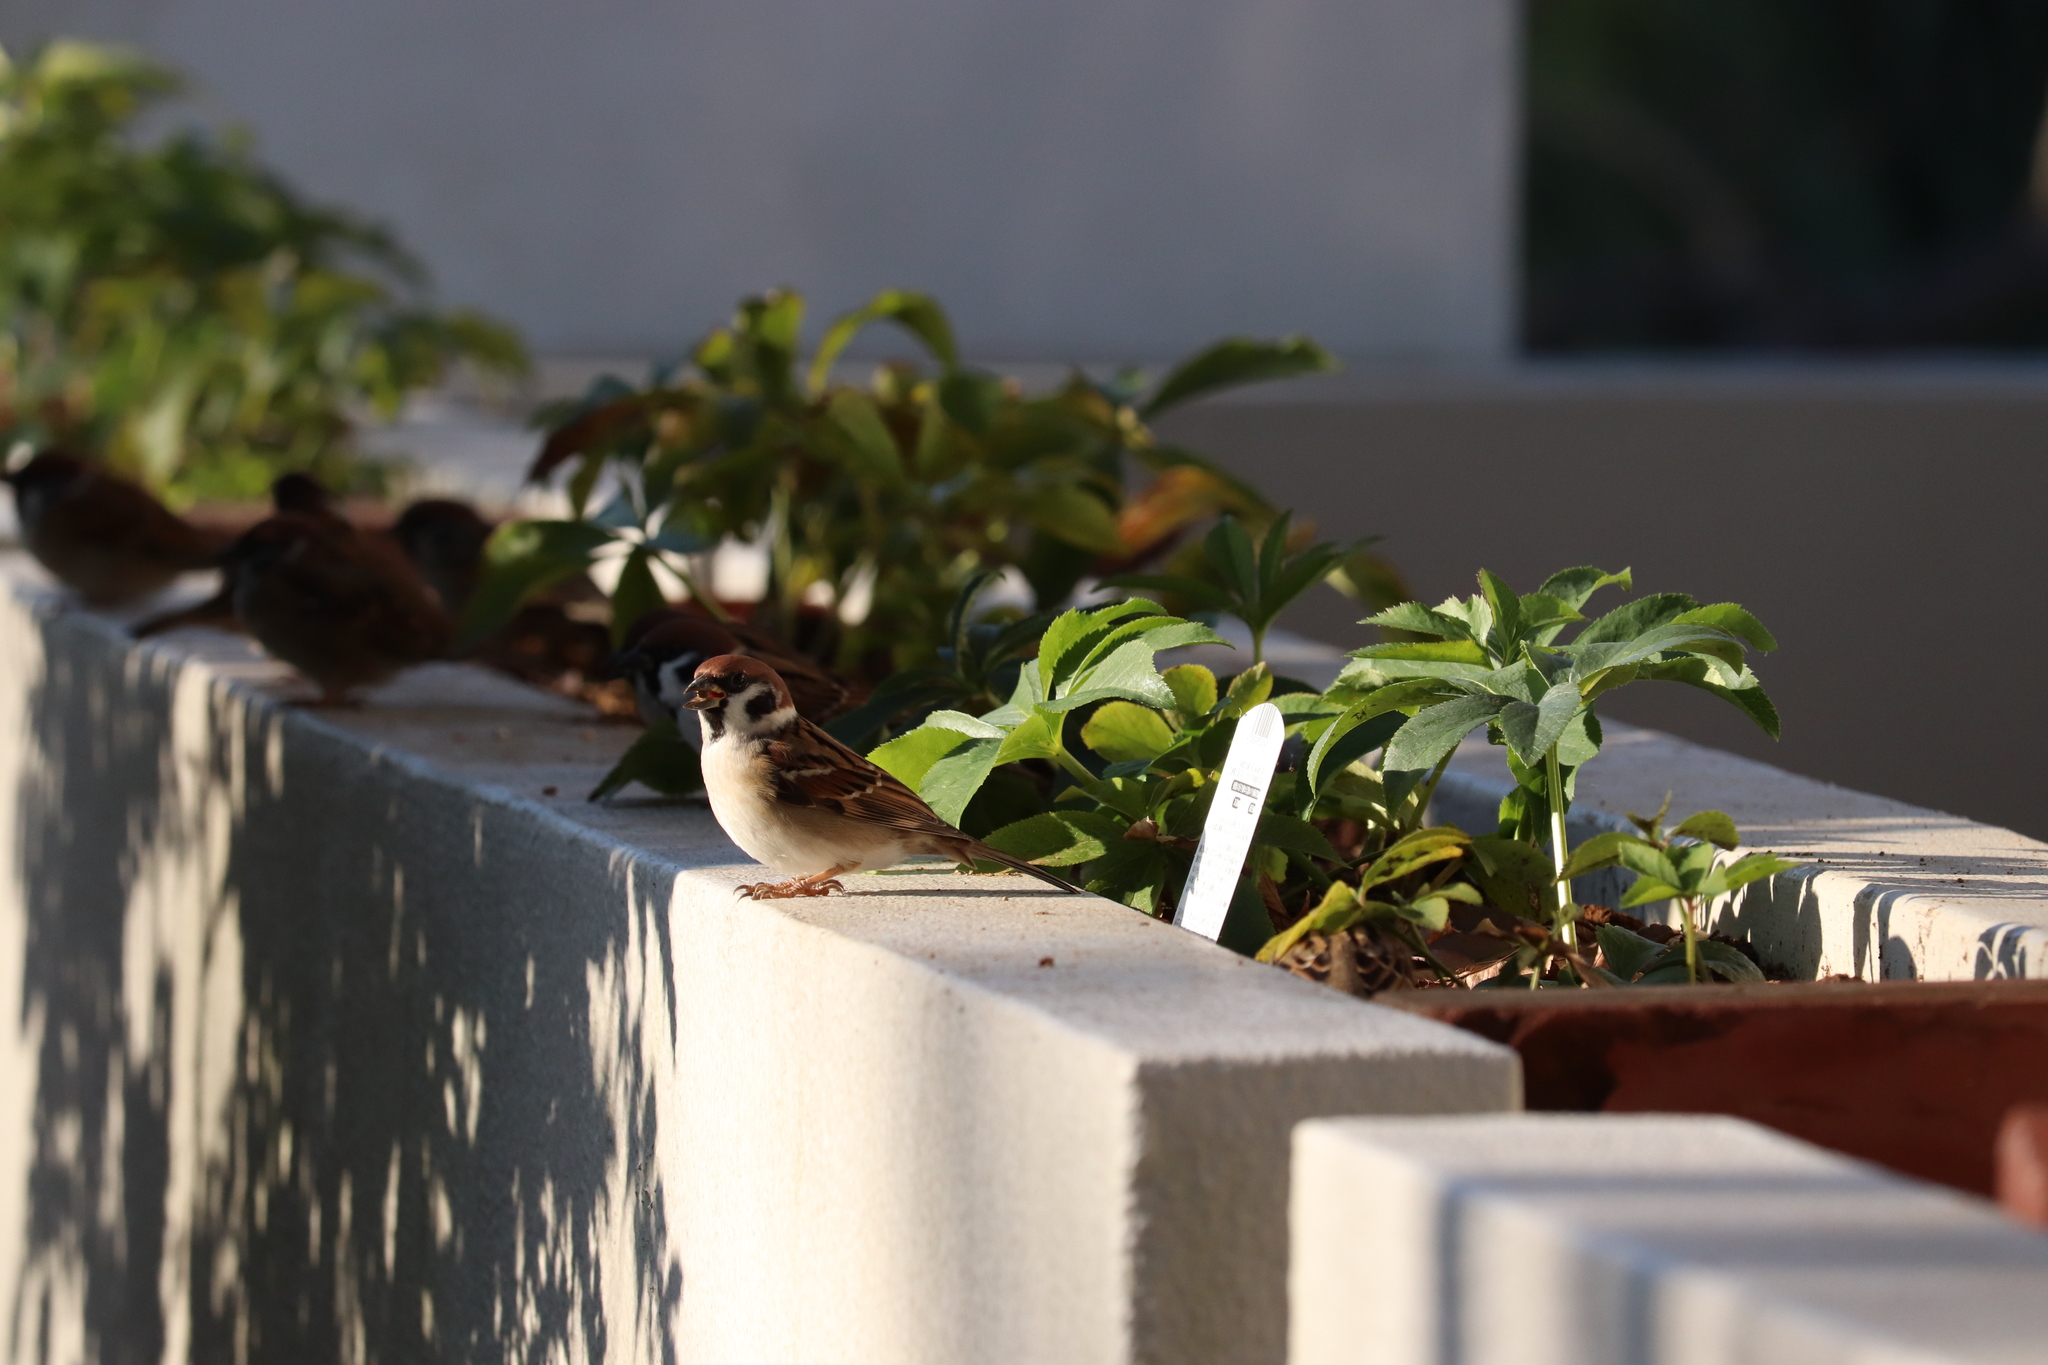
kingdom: Animalia
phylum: Chordata
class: Aves
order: Passeriformes
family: Passeridae
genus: Passer
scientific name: Passer montanus
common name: Eurasian tree sparrow
